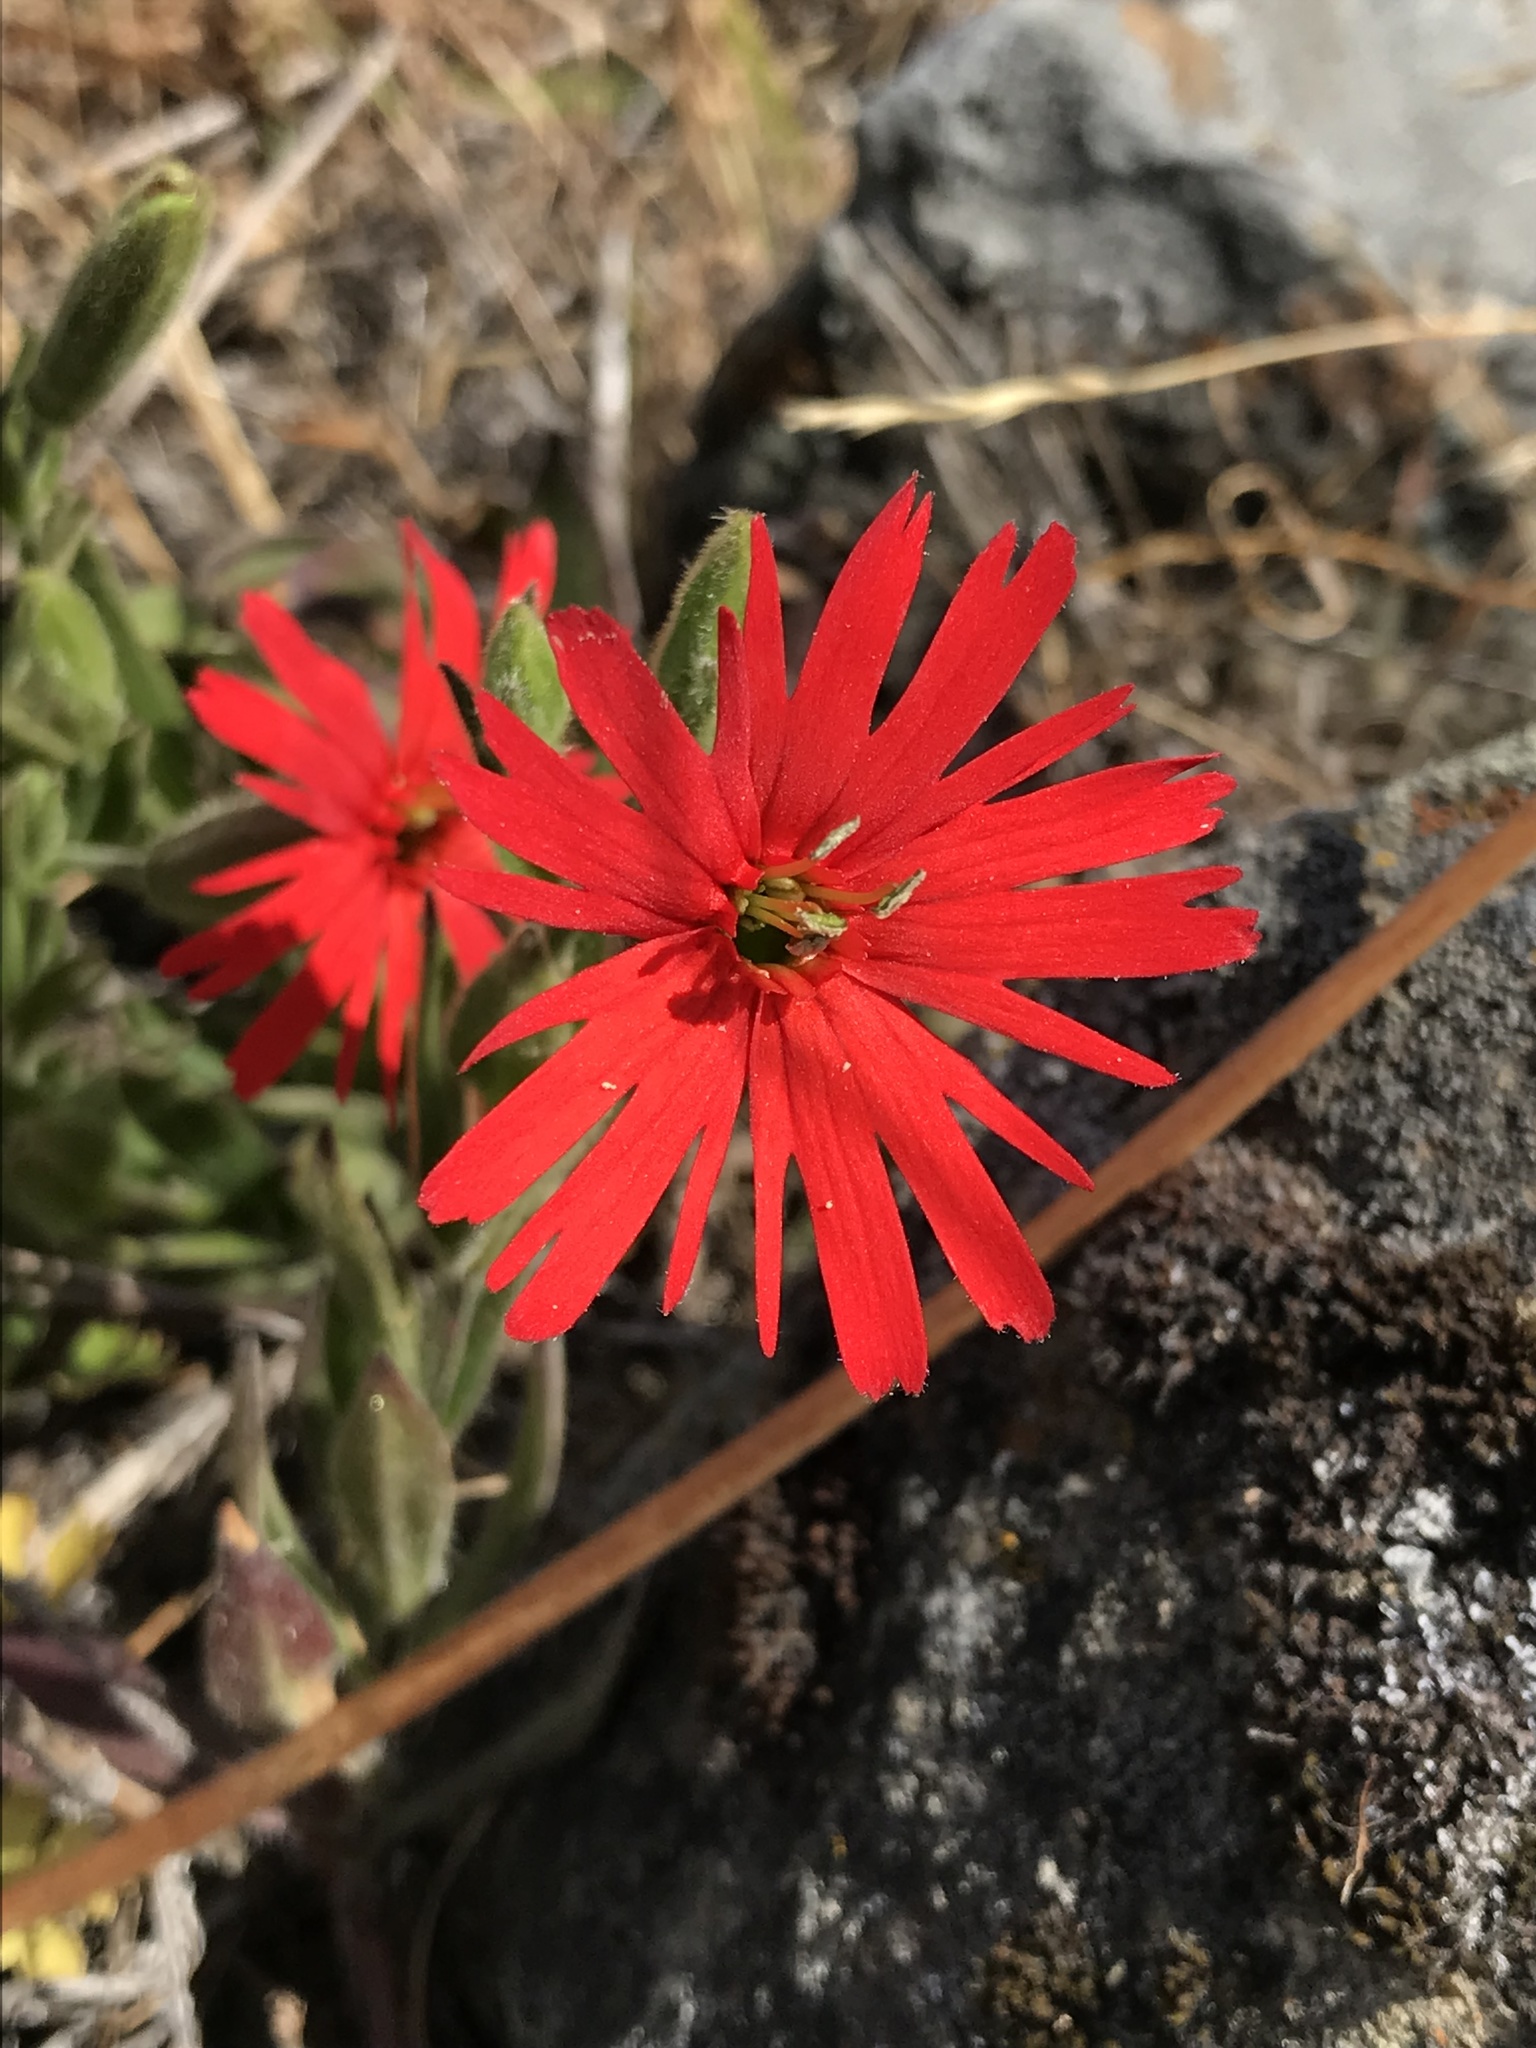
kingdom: Plantae
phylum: Tracheophyta
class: Magnoliopsida
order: Caryophyllales
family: Caryophyllaceae
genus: Silene
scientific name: Silene laciniata
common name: Indian-pink
